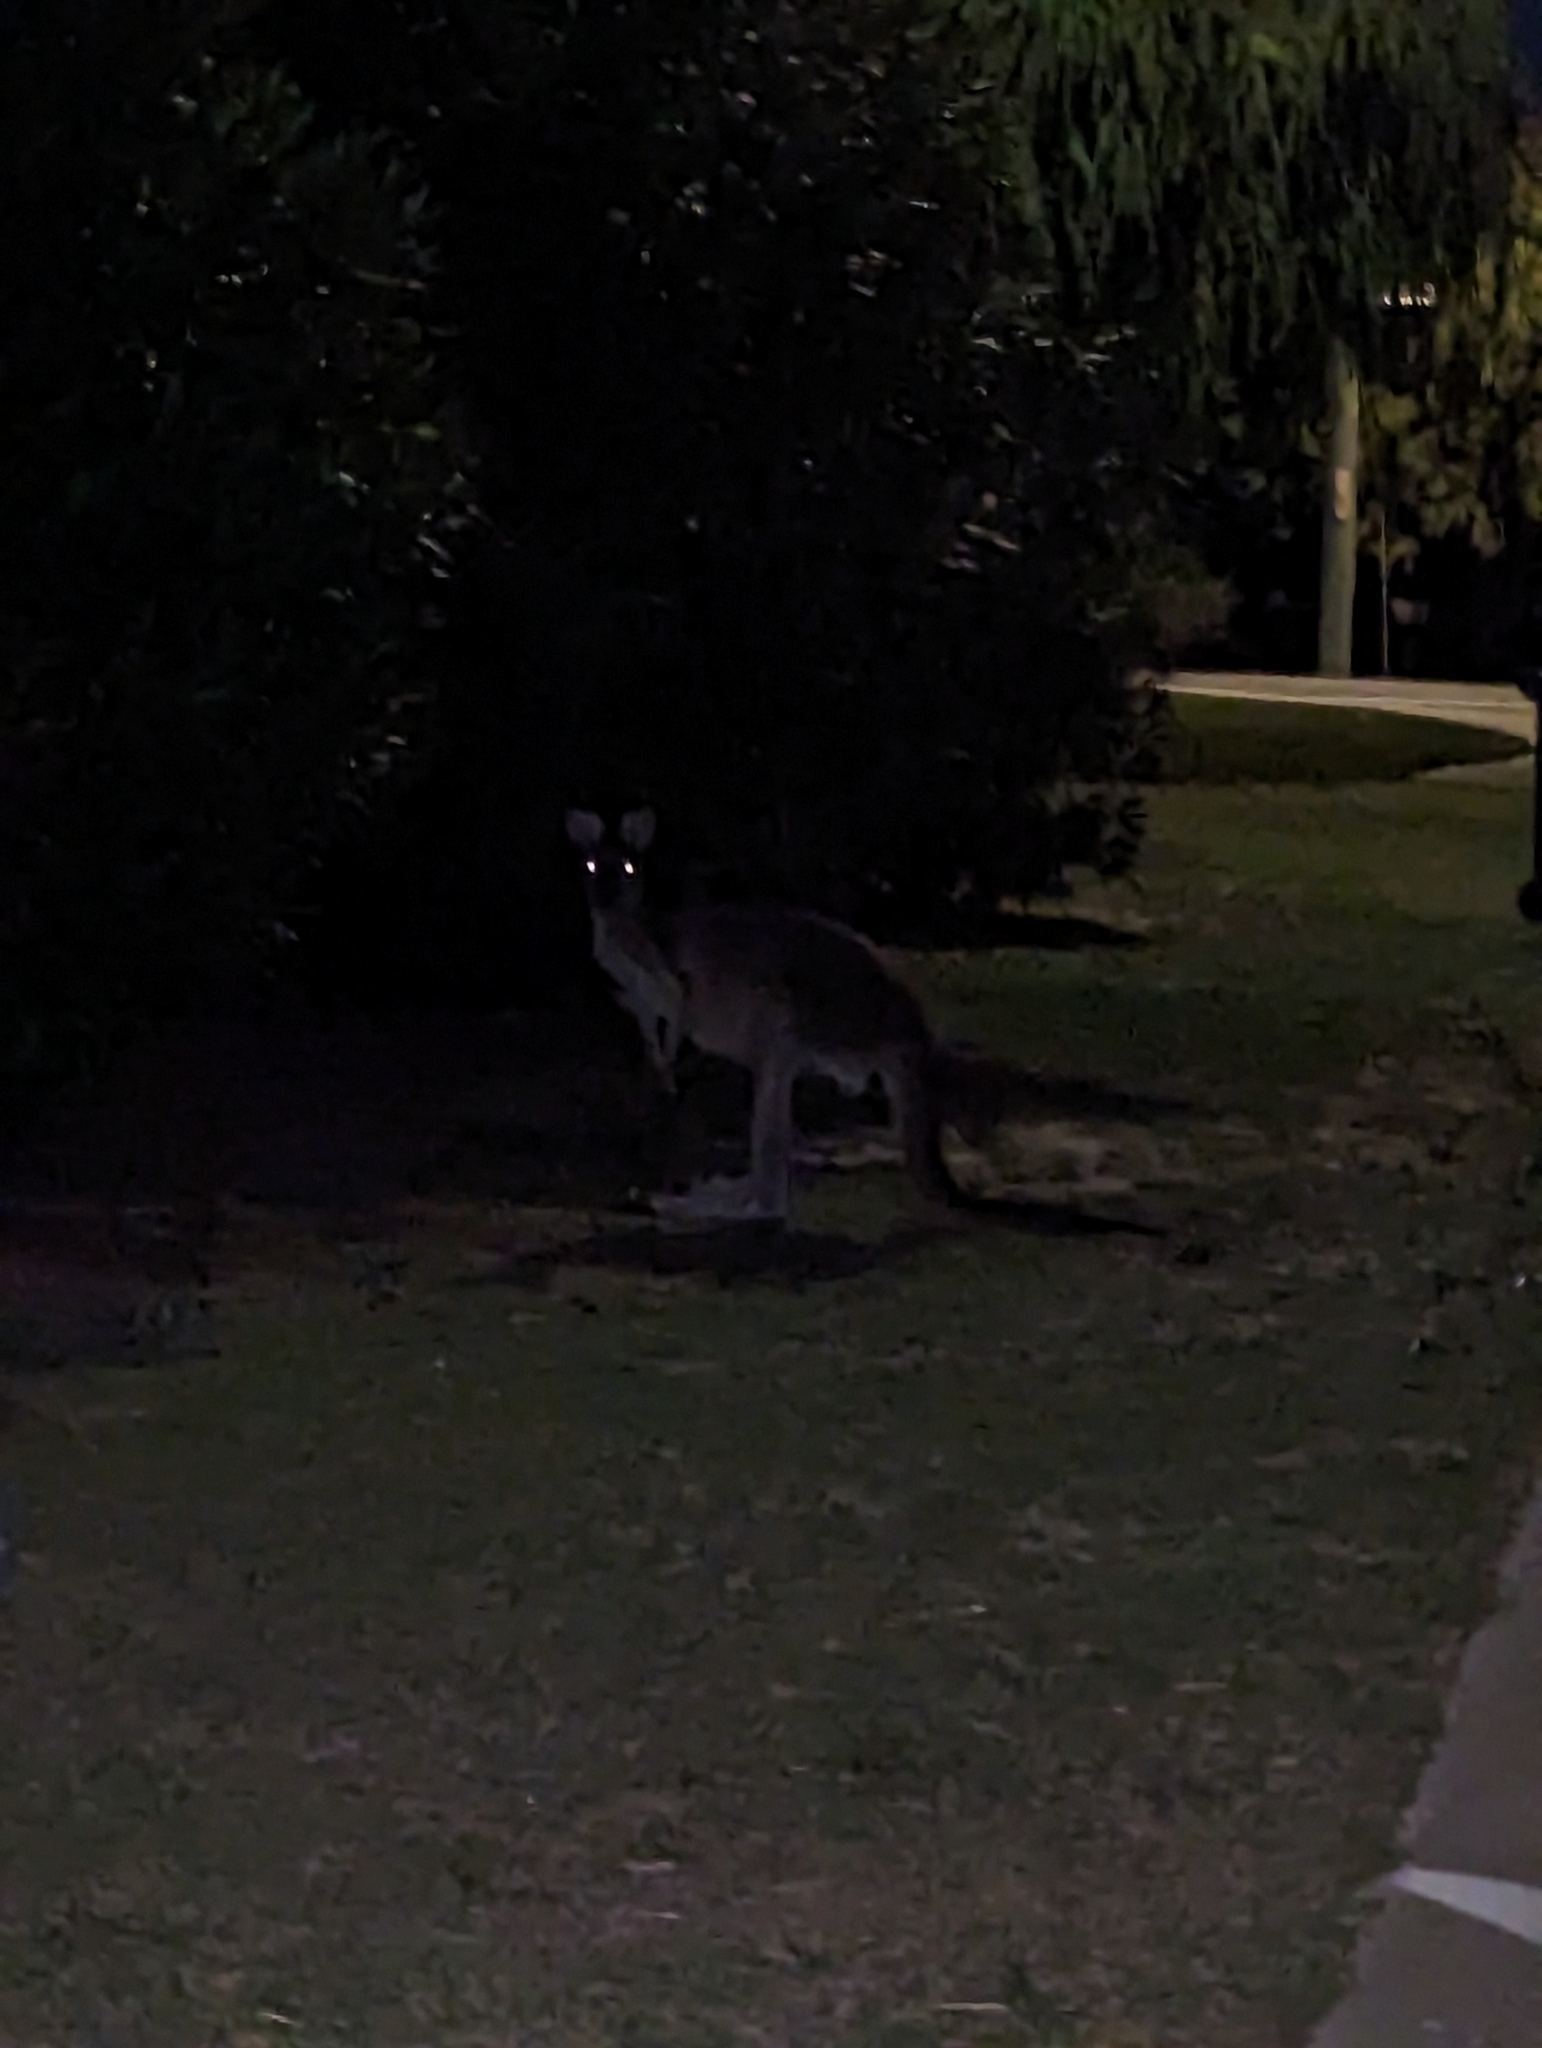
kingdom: Animalia
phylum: Chordata
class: Mammalia
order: Diprotodontia
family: Macropodidae
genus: Macropus
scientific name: Macropus fuliginosus
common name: Western grey kangaroo
